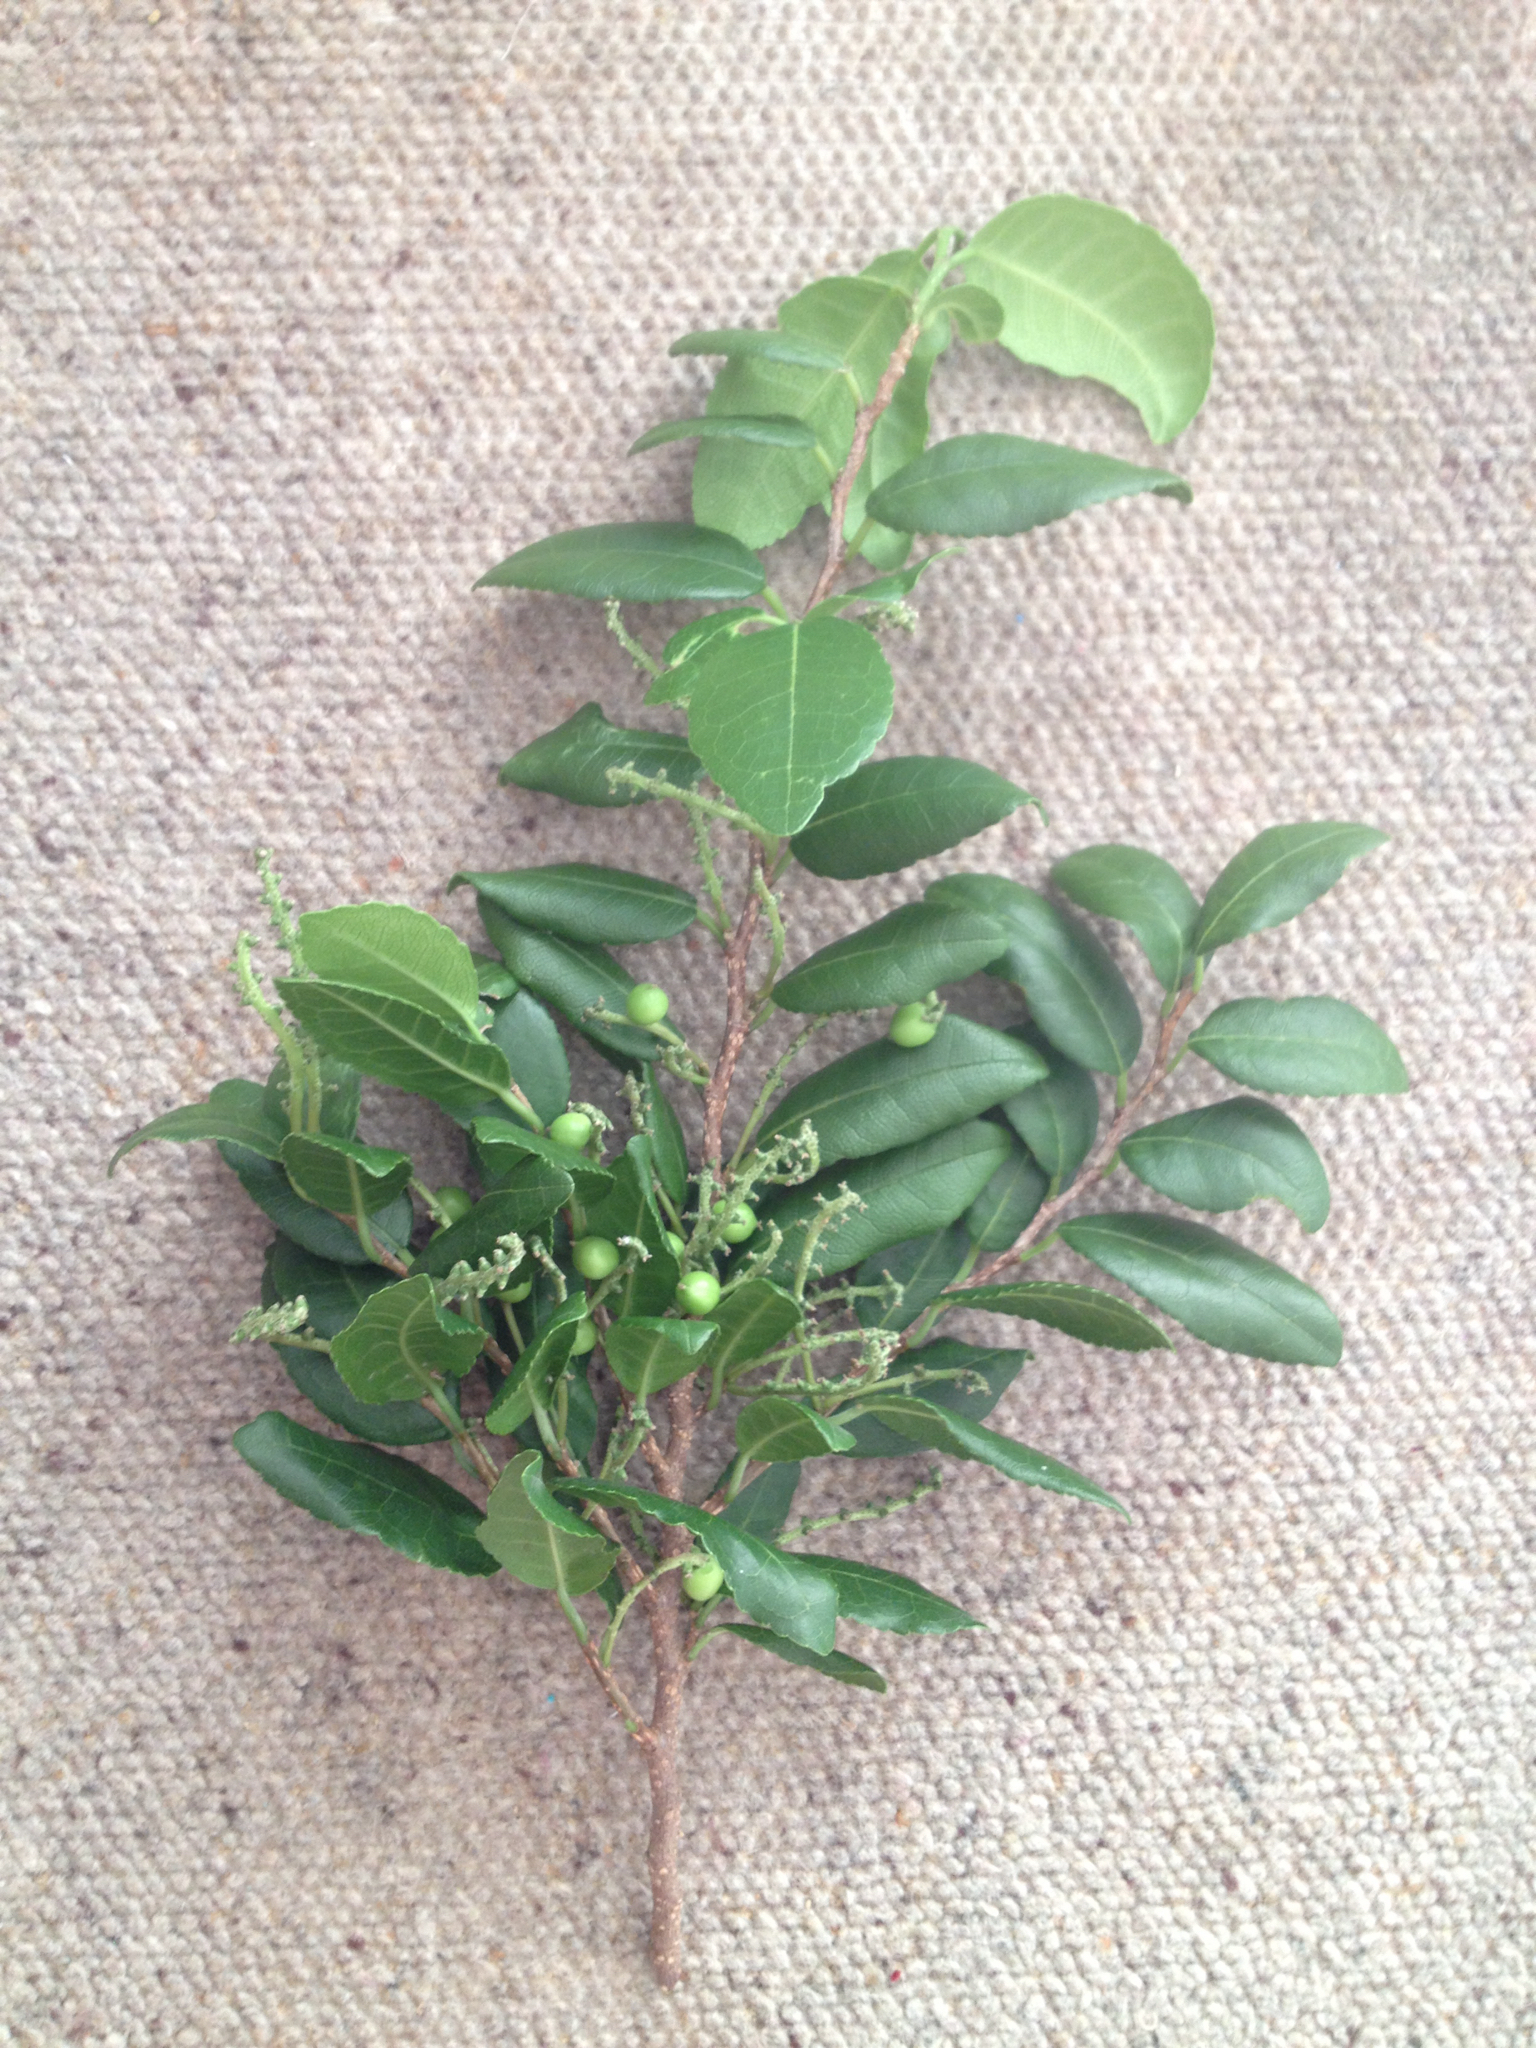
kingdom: Plantae
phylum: Tracheophyta
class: Magnoliopsida
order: Rosales
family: Moraceae
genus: Paratrophis
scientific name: Paratrophis banksii
